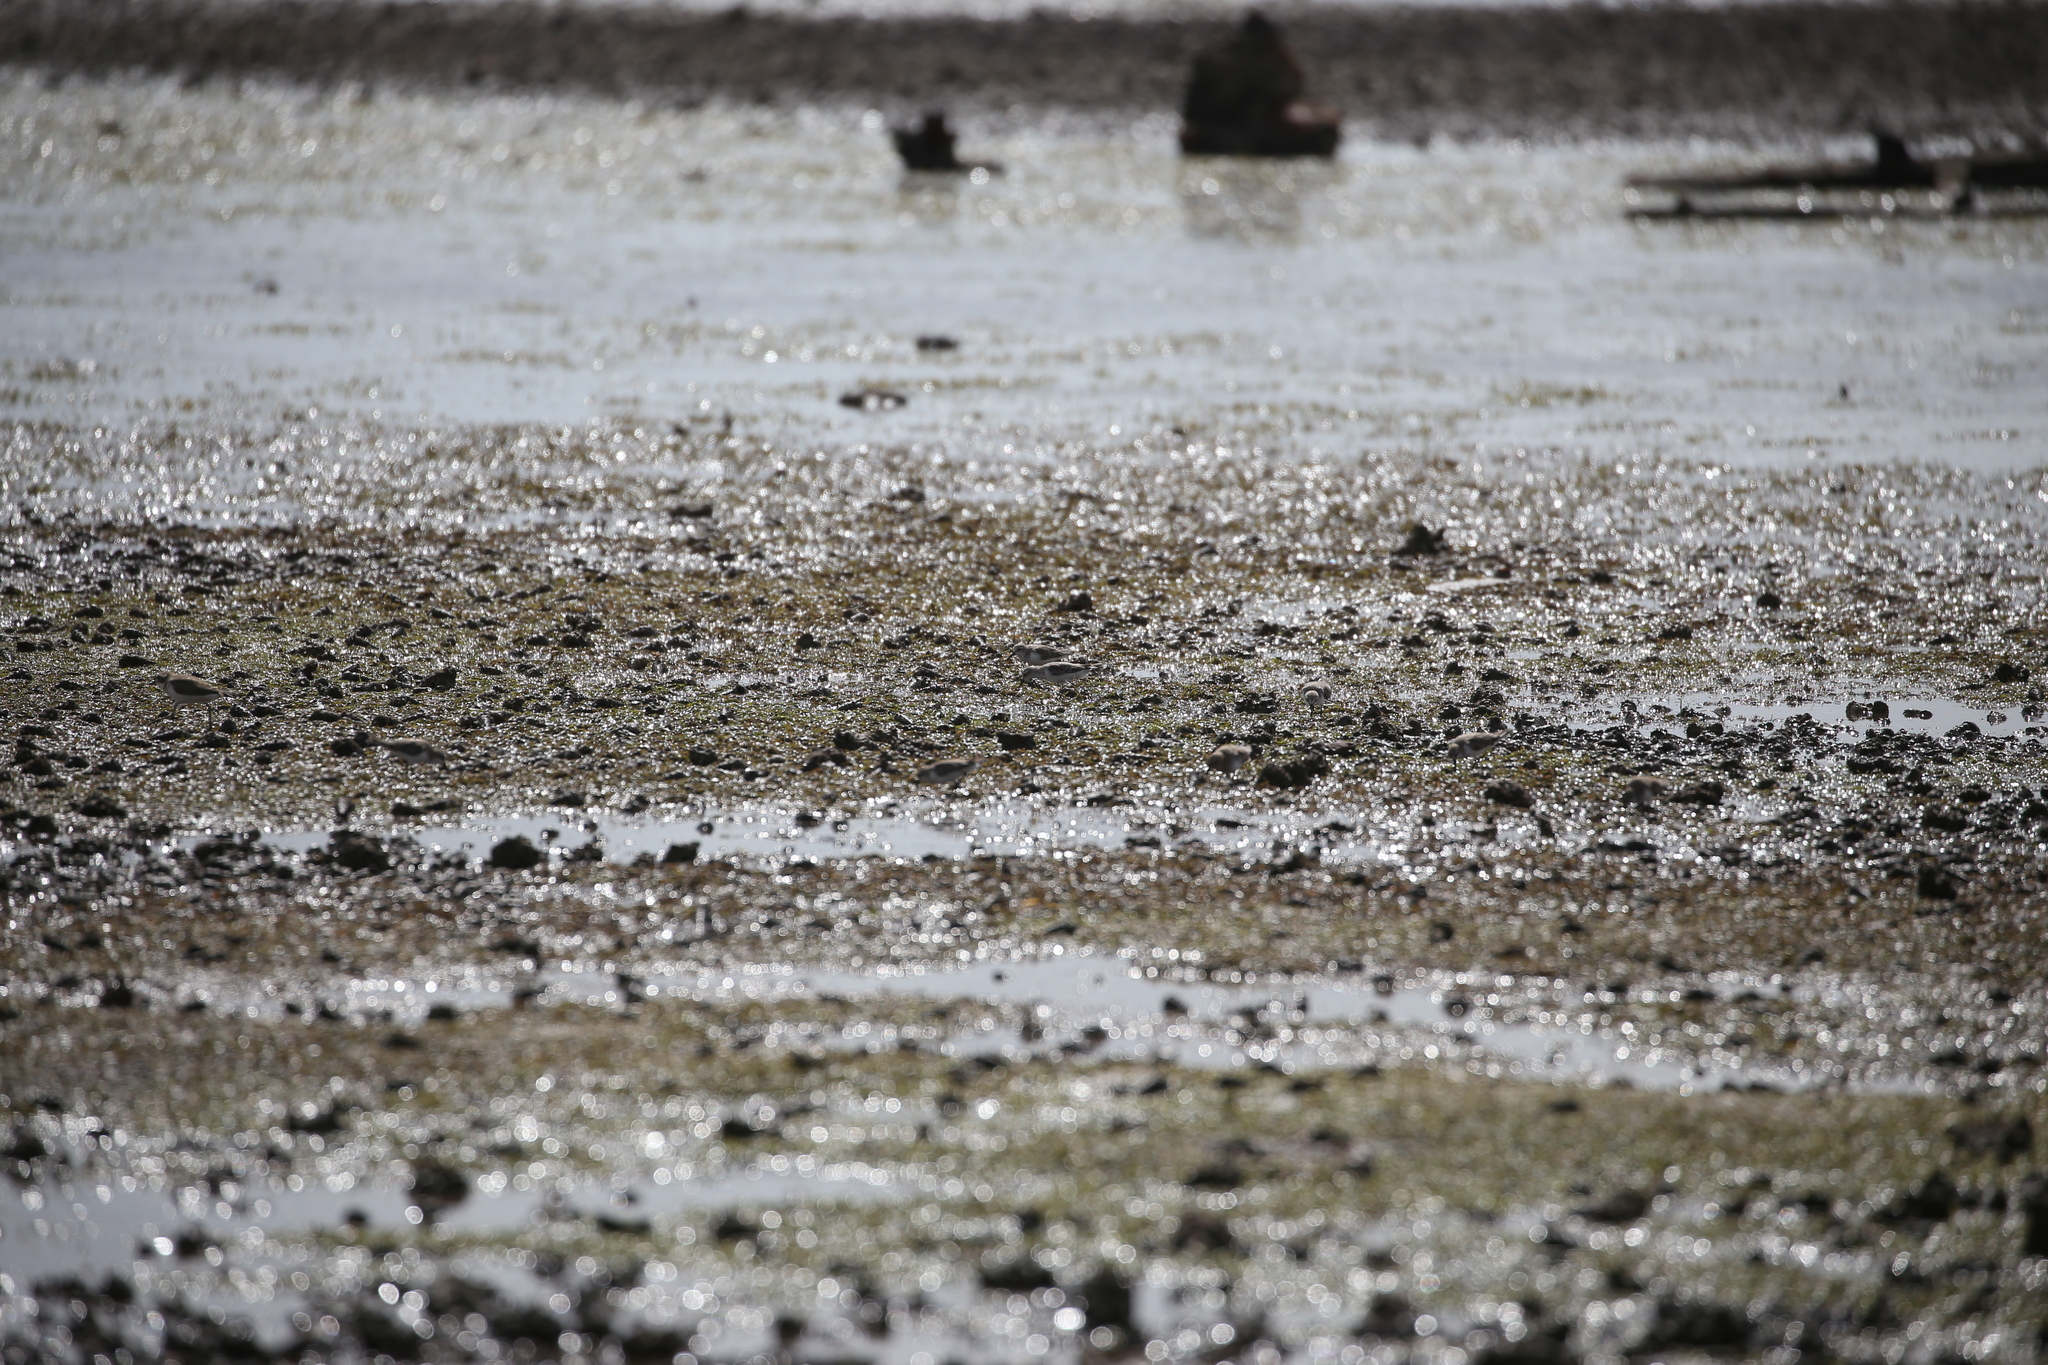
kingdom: Animalia
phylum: Chordata
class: Aves
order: Charadriiformes
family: Scolopacidae
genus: Calidris
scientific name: Calidris ruficollis
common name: Red-necked stint
